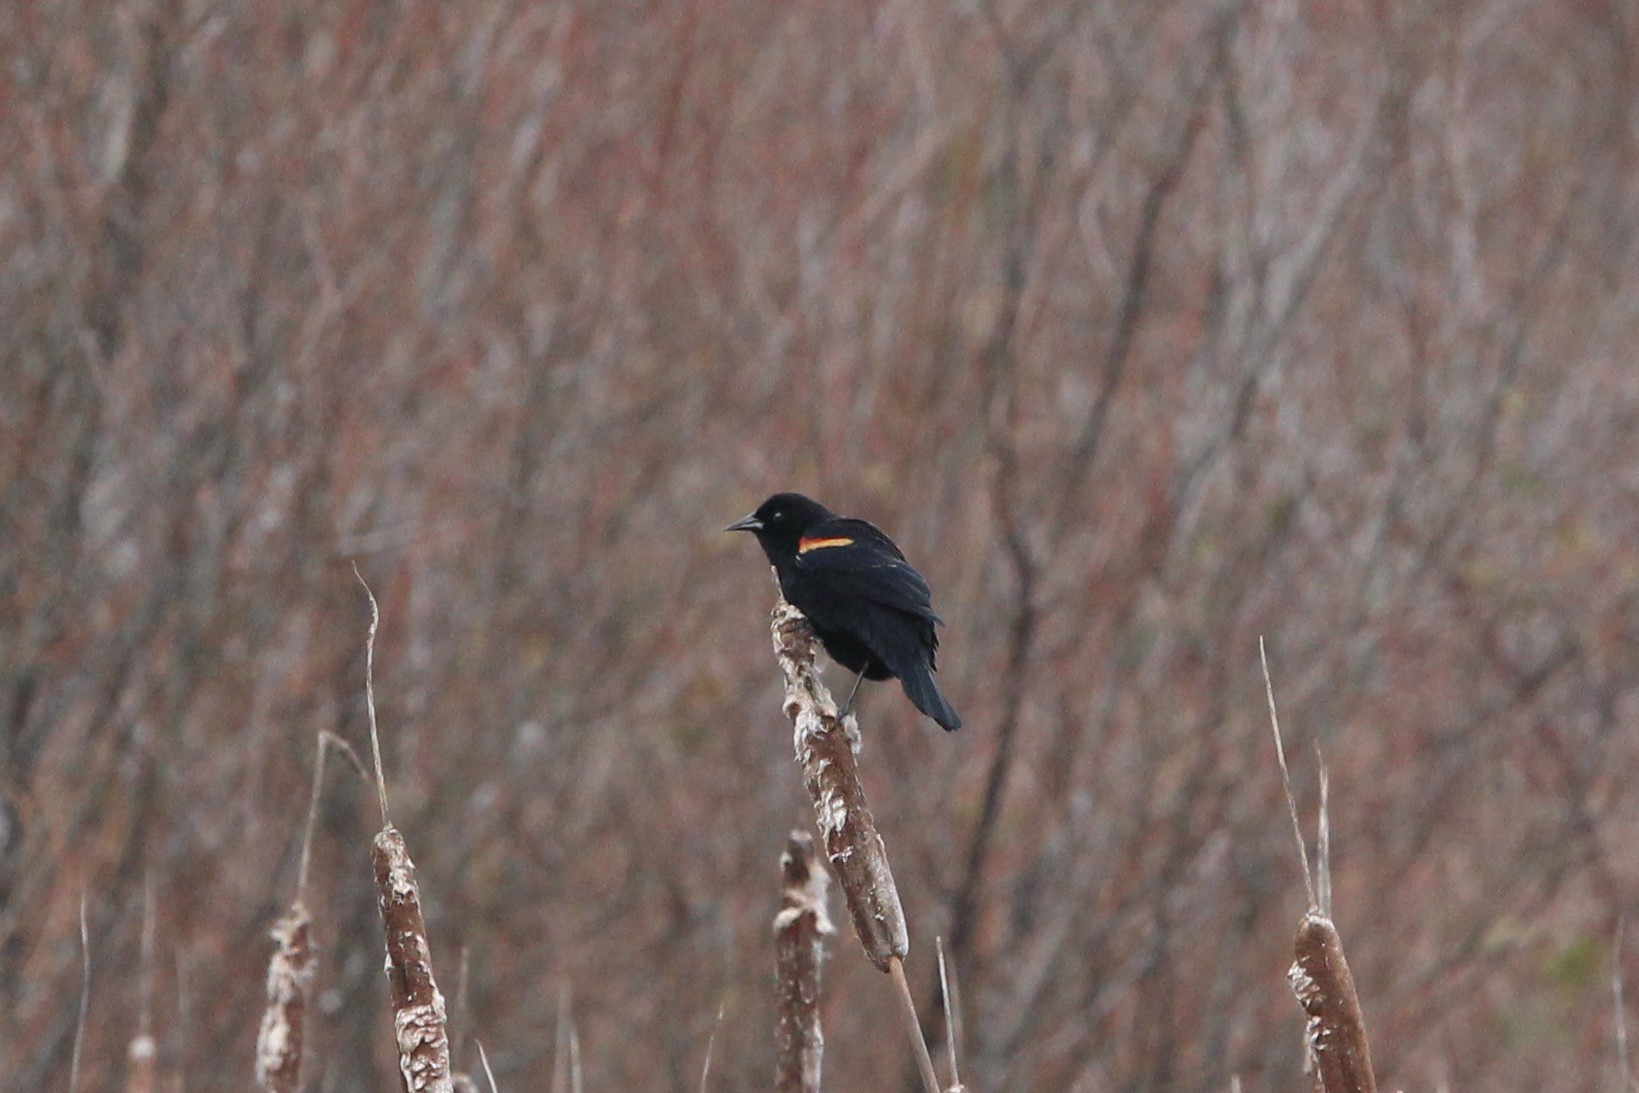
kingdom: Animalia
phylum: Chordata
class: Aves
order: Passeriformes
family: Icteridae
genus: Agelaius
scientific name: Agelaius phoeniceus
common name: Red-winged blackbird
